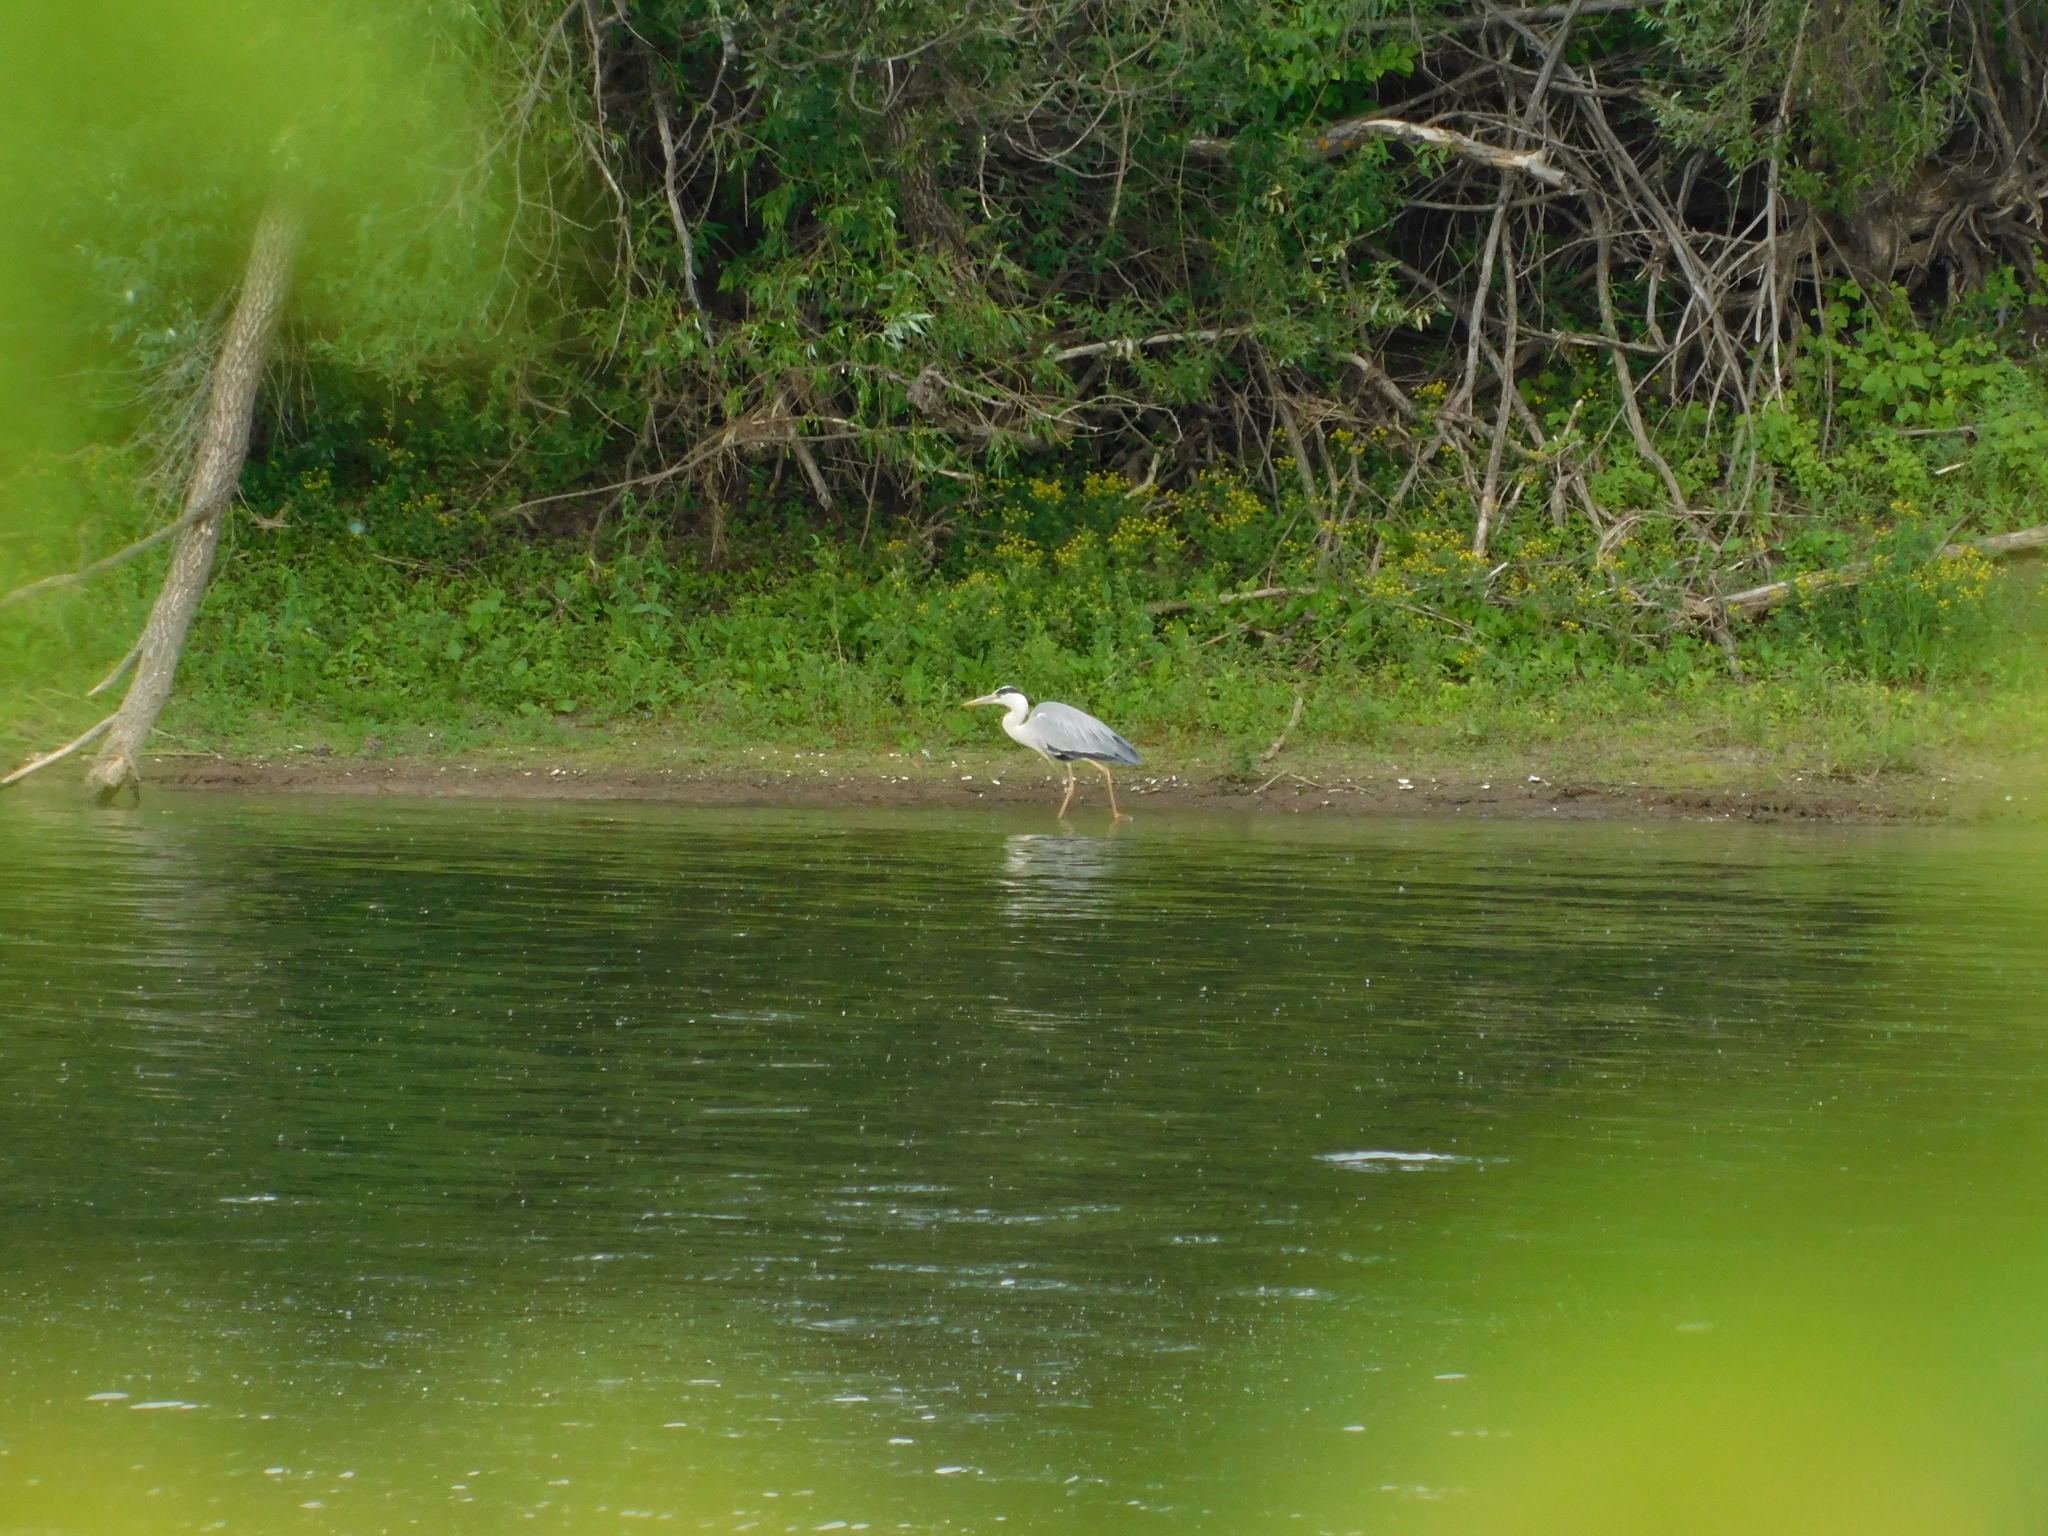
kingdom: Animalia
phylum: Chordata
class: Aves
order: Pelecaniformes
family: Ardeidae
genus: Ardea
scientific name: Ardea cinerea
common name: Grey heron
